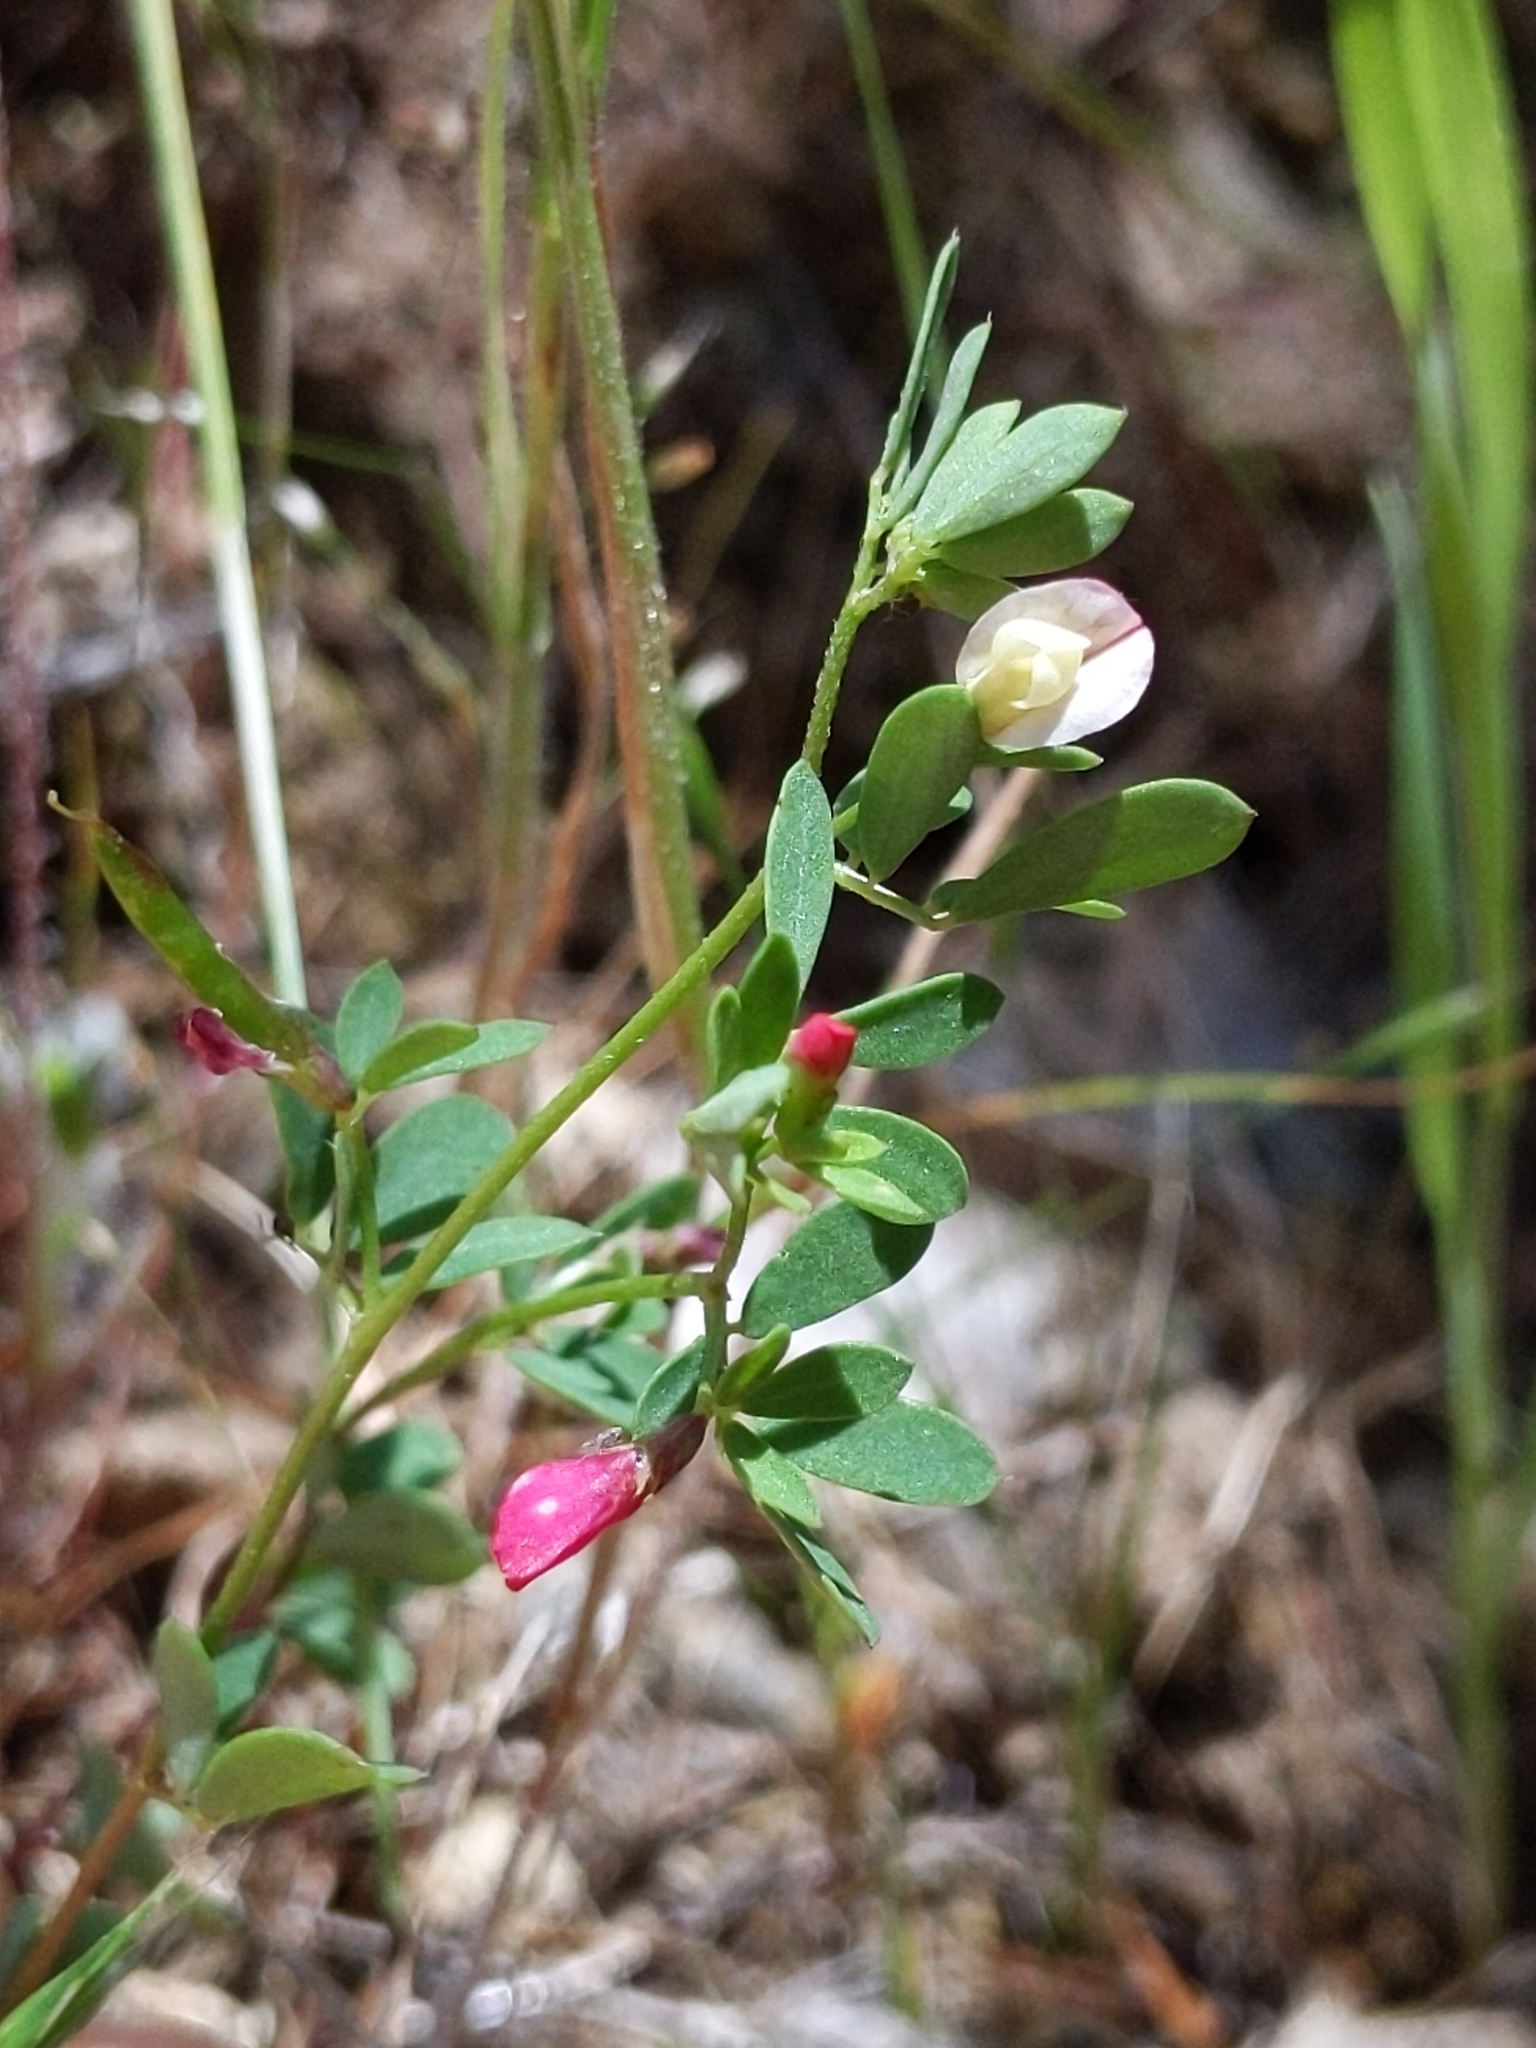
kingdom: Plantae
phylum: Tracheophyta
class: Magnoliopsida
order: Fabales
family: Fabaceae
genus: Acmispon
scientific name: Acmispon parviflorus
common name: Desert deer-vetch
